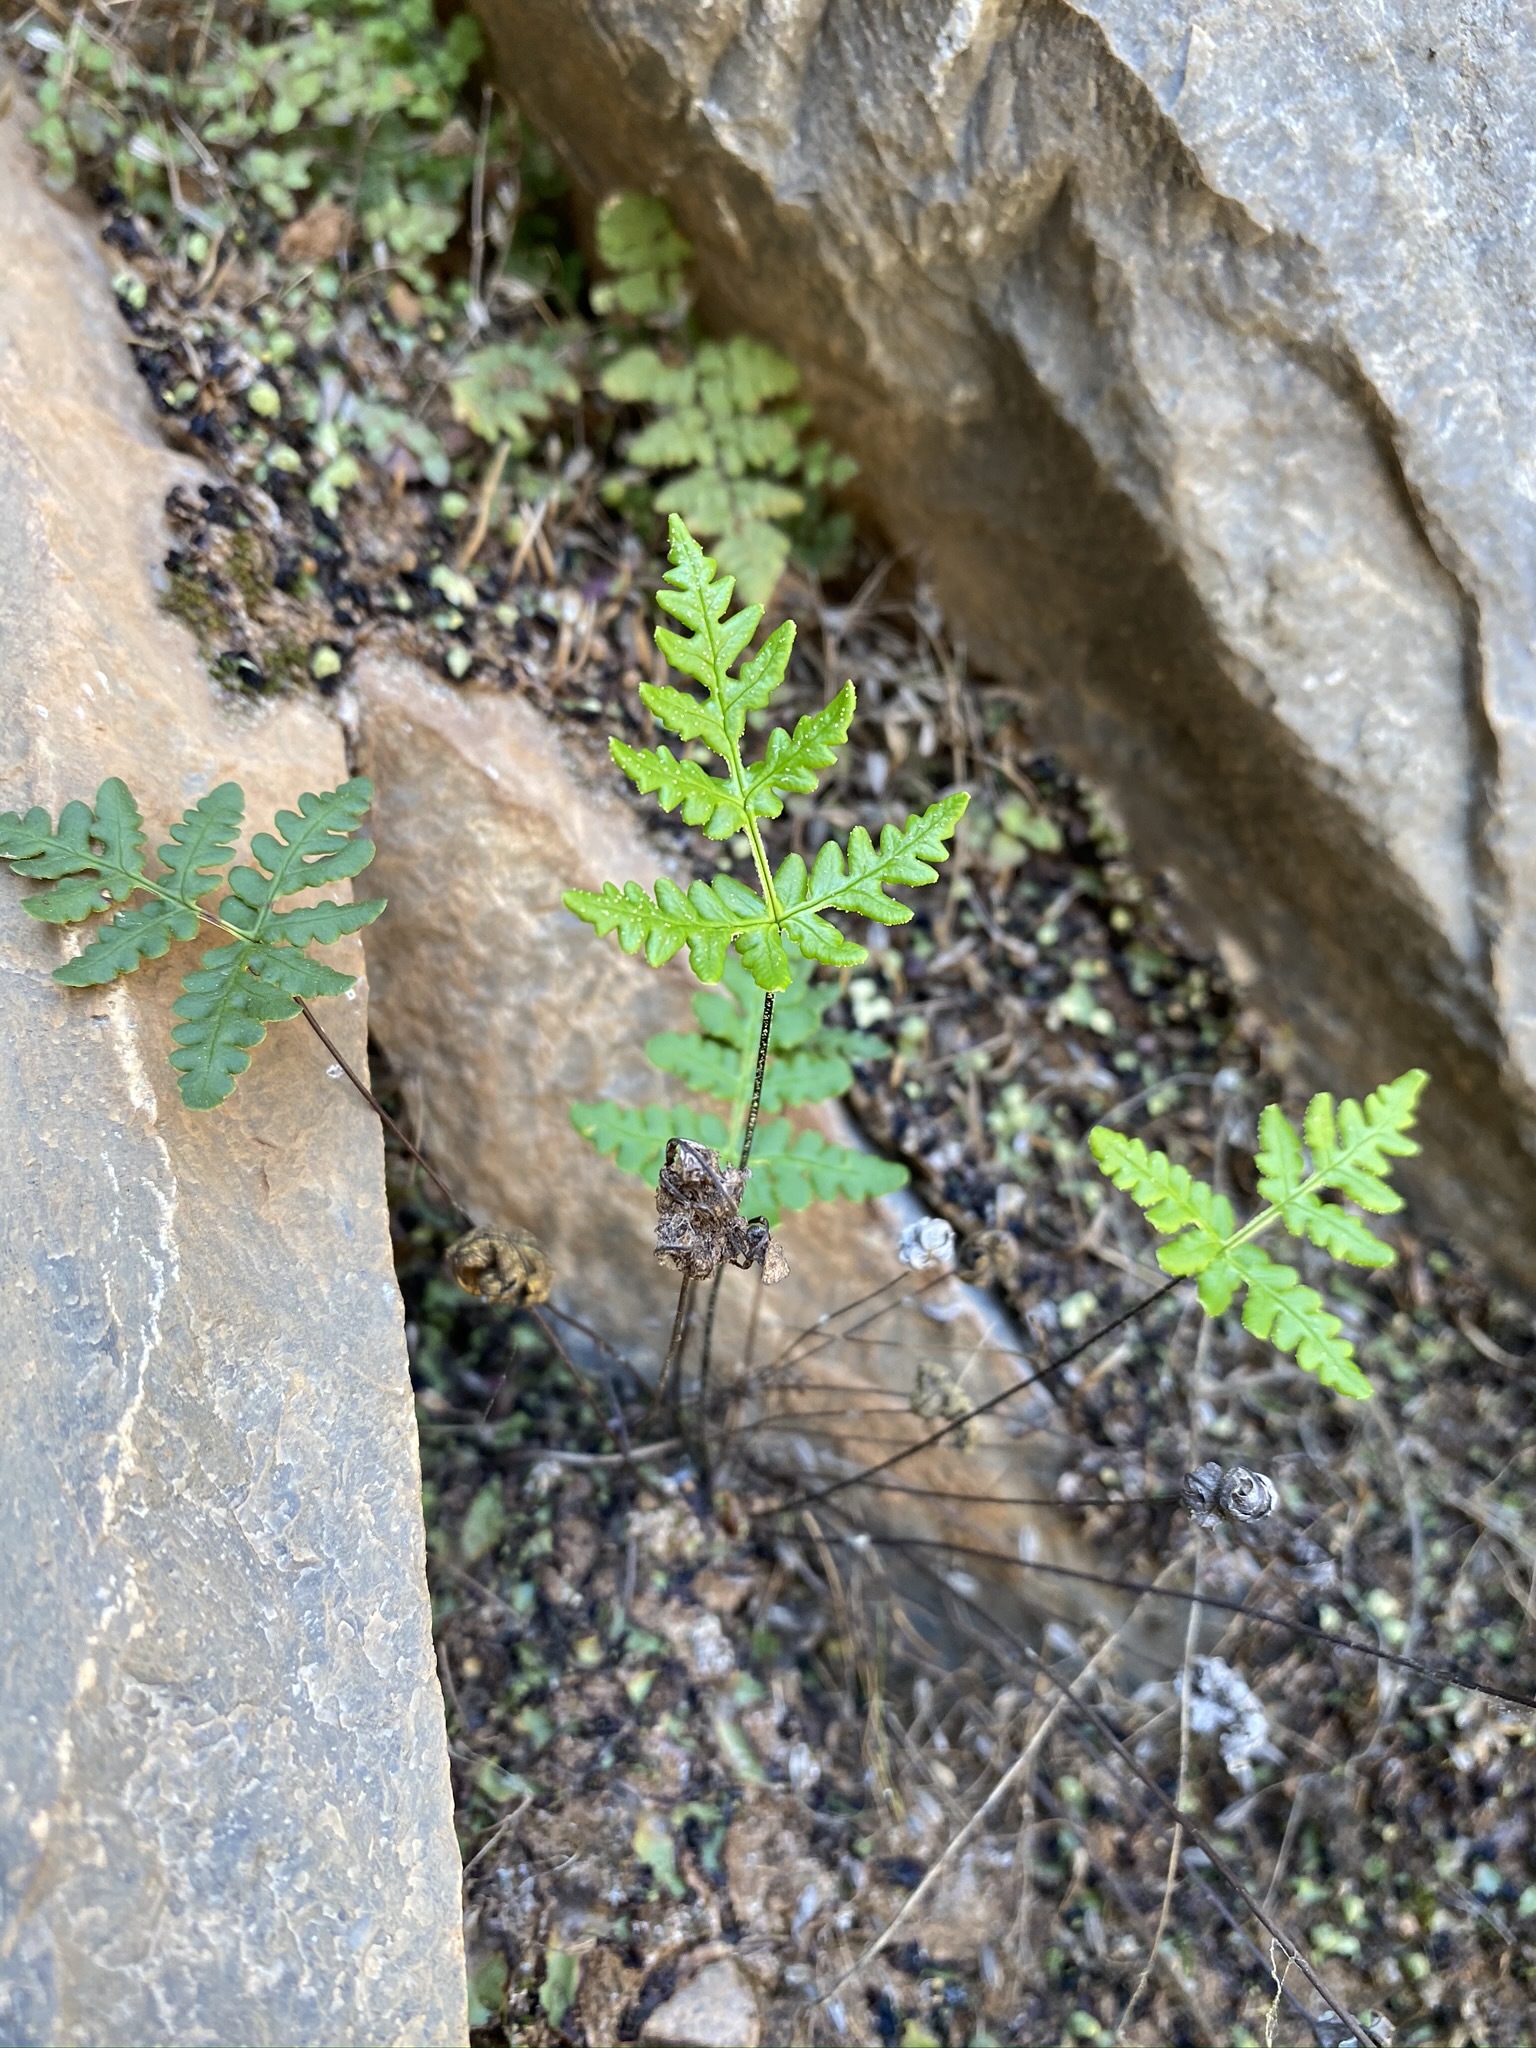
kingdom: Plantae
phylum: Tracheophyta
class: Polypodiopsida
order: Polypodiales
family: Pteridaceae
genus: Pentagramma
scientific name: Pentagramma triangularis
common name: Gold fern
